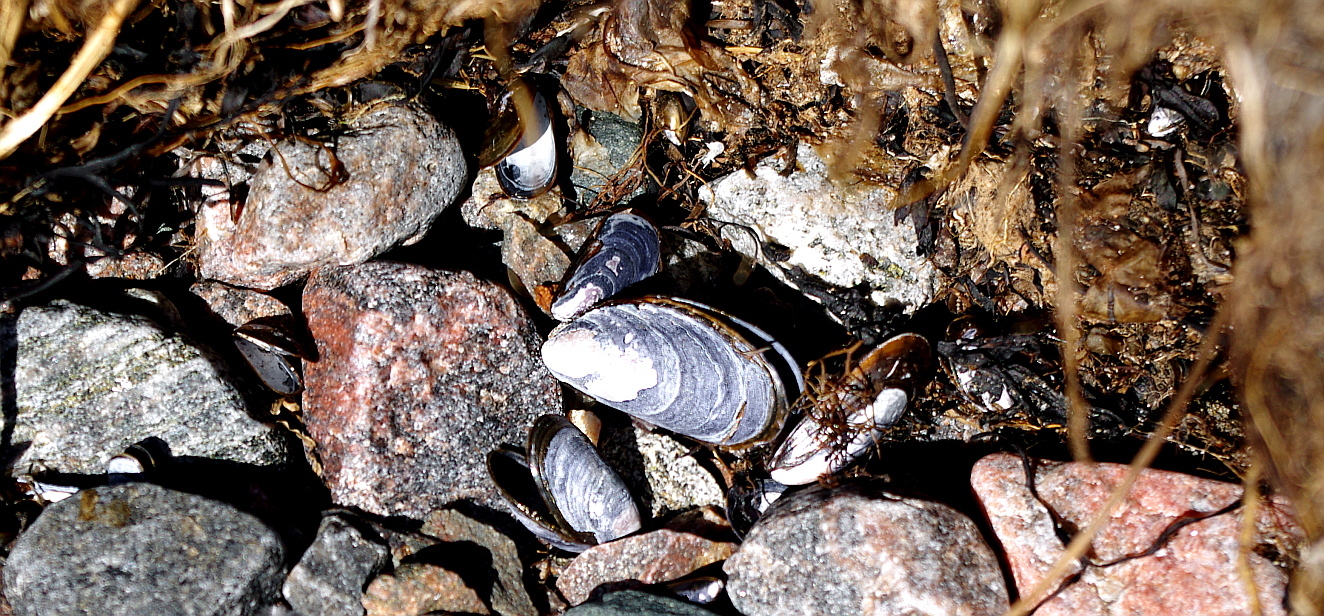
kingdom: Animalia
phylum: Mollusca
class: Bivalvia
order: Mytilida
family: Mytilidae
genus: Mytilus
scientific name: Mytilus edulis
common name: Blue mussel
